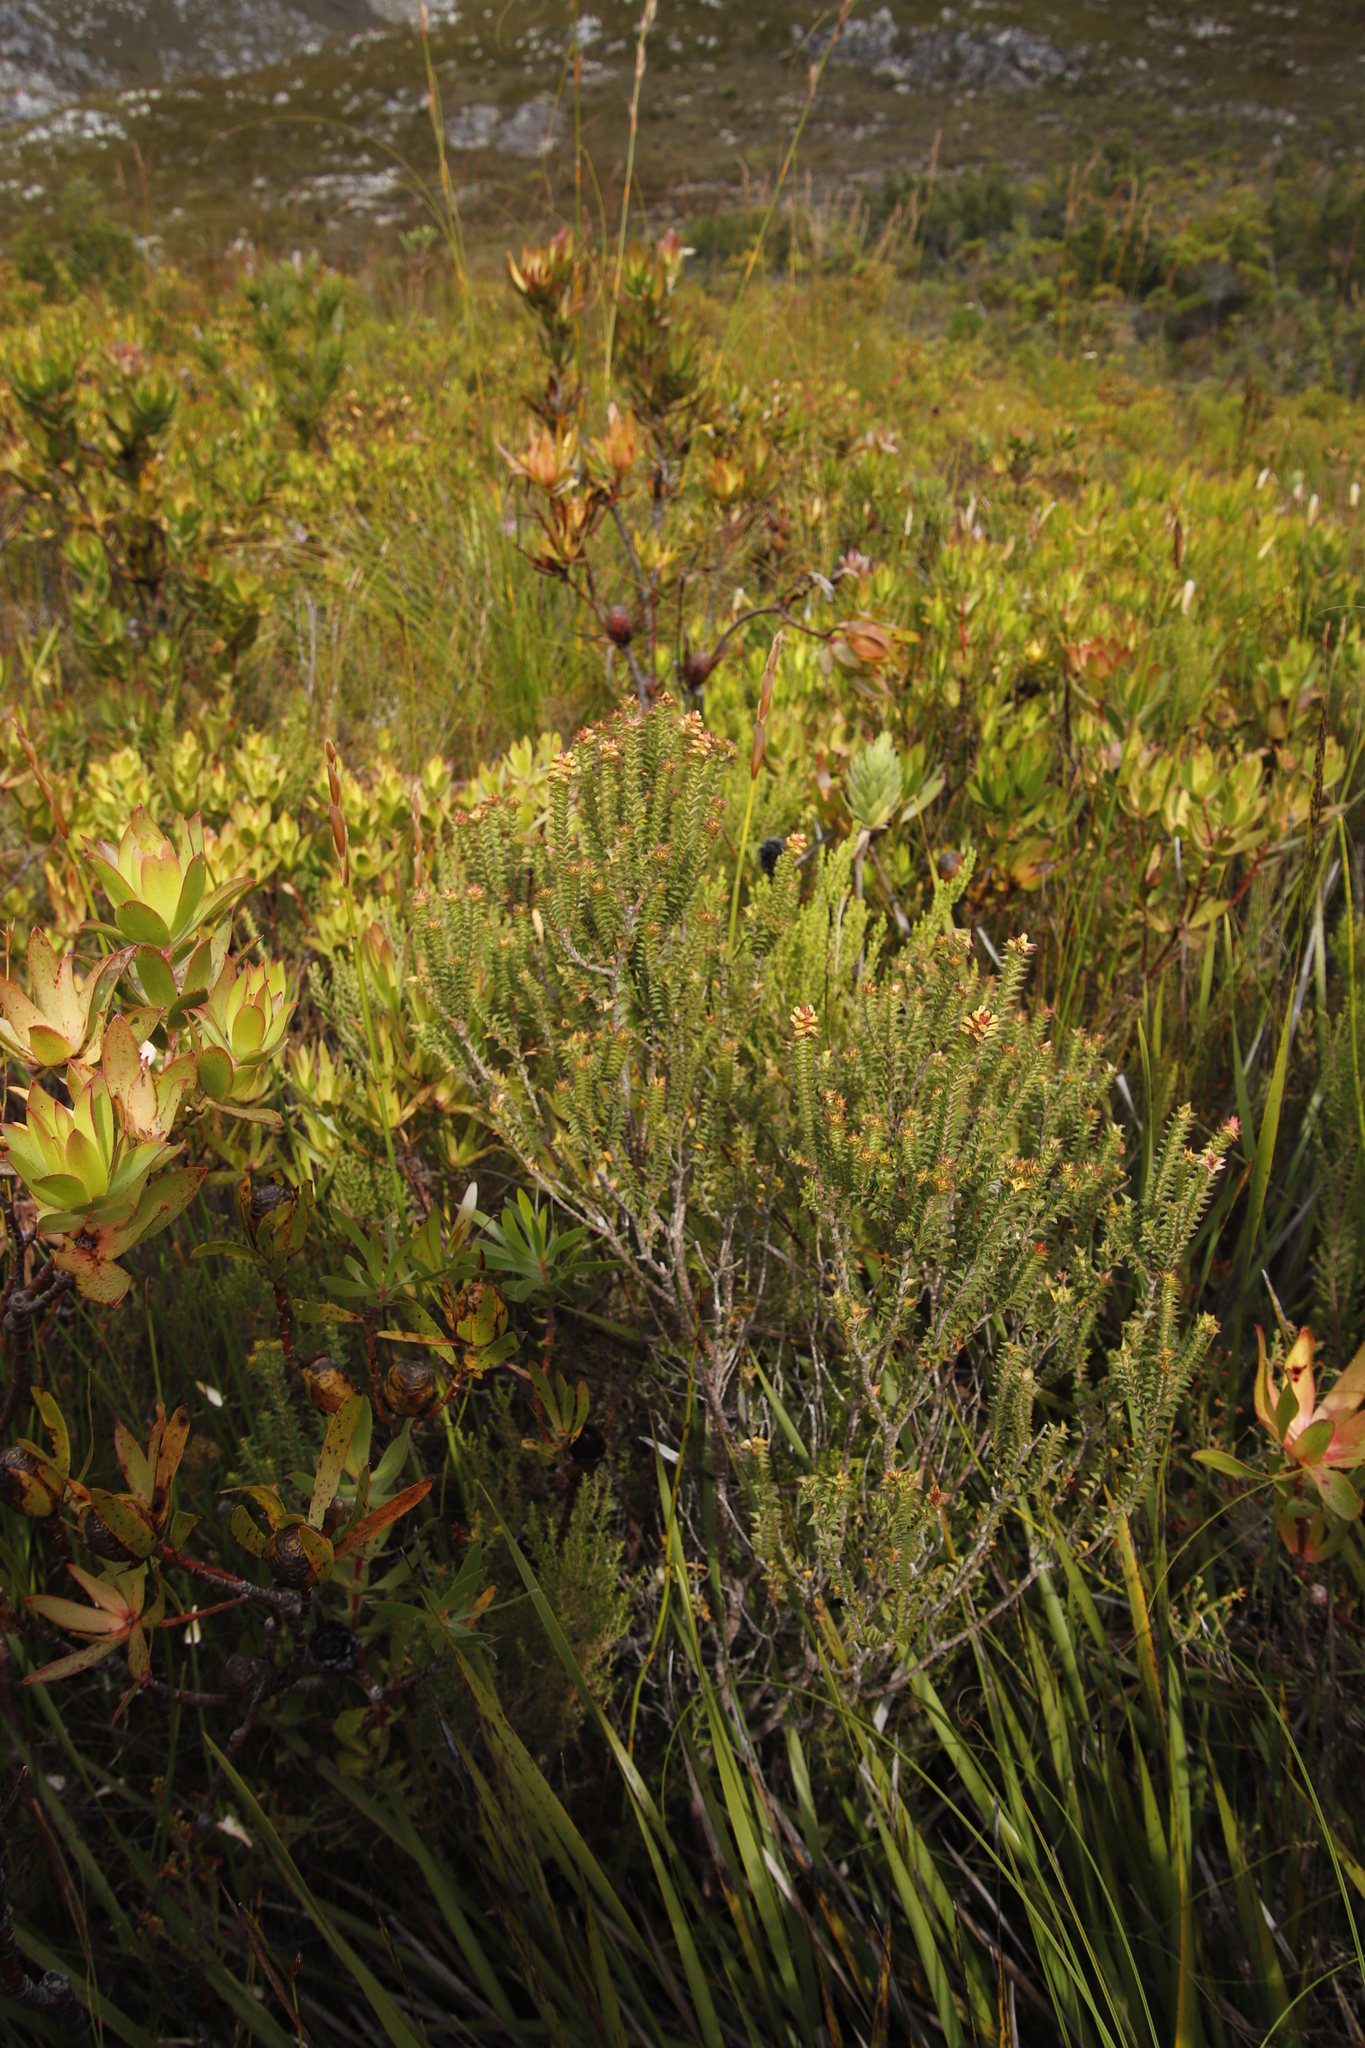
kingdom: Plantae
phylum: Tracheophyta
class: Magnoliopsida
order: Myrtales
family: Penaeaceae
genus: Penaea
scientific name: Penaea cneorum
